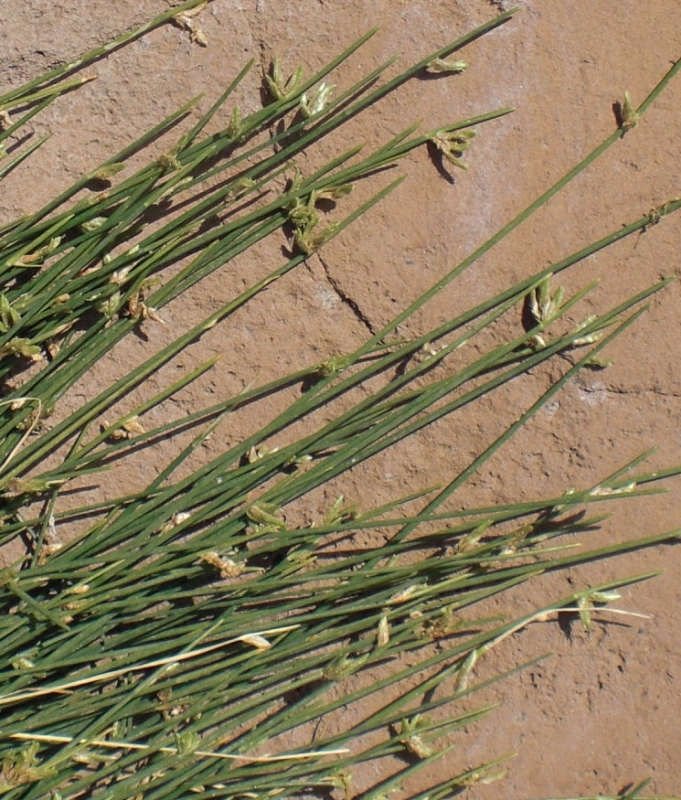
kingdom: Plantae
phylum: Tracheophyta
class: Liliopsida
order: Poales
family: Cyperaceae
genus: Cyperus
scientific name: Cyperus laevigatus
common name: Smooth flat sedge
